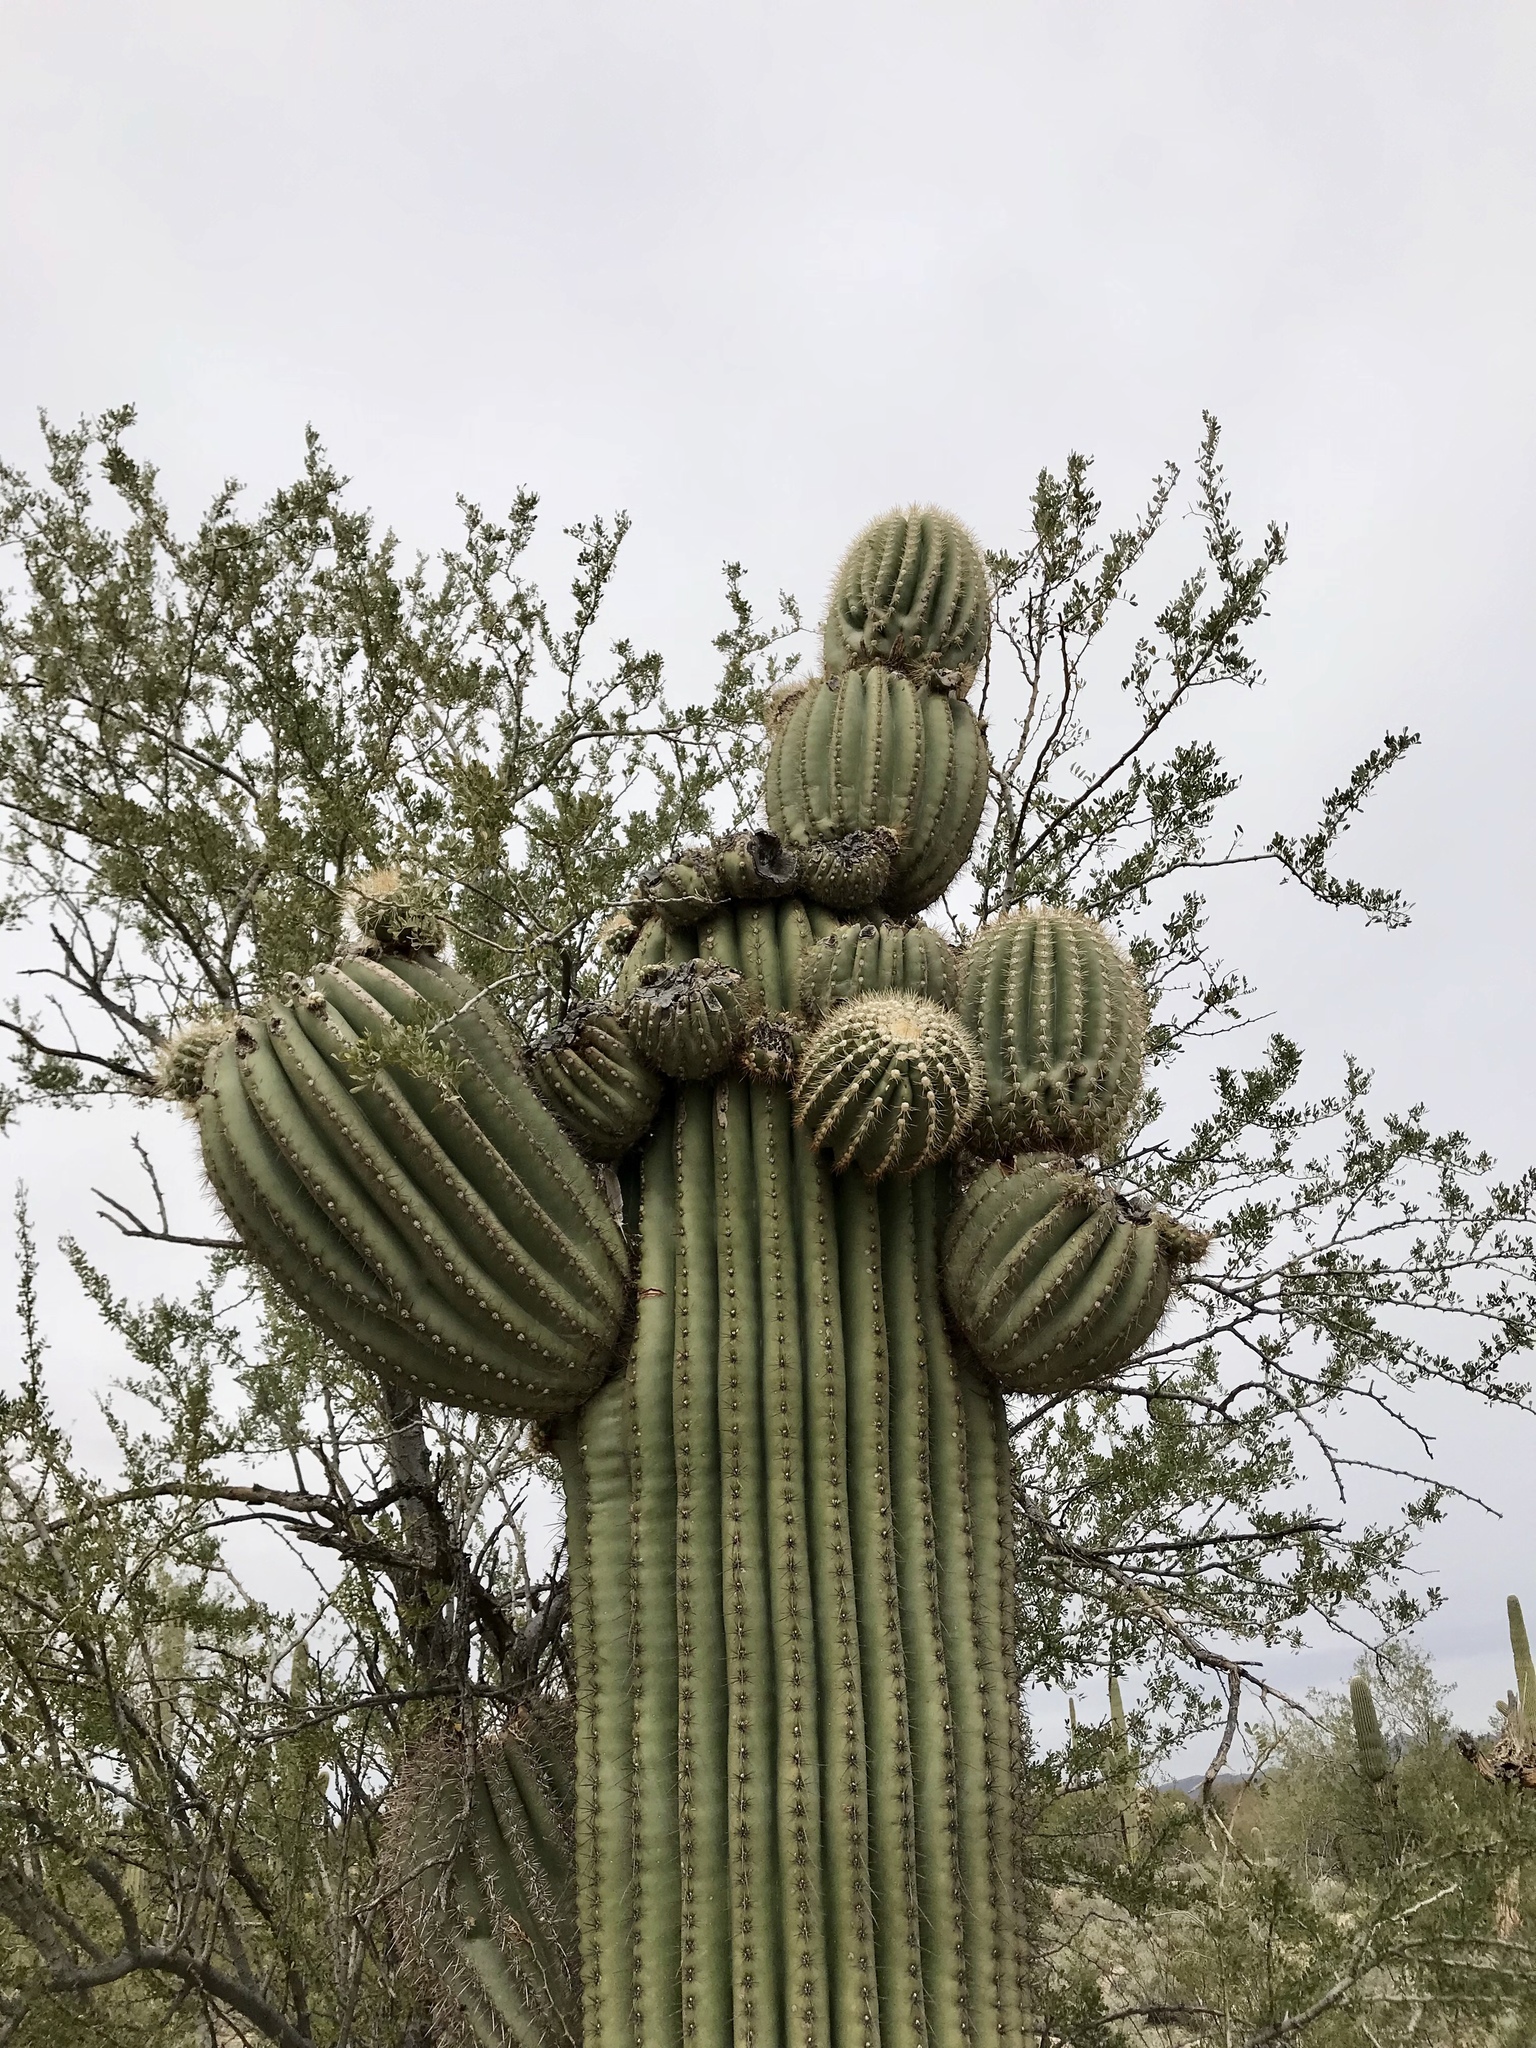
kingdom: Plantae
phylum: Tracheophyta
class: Magnoliopsida
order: Caryophyllales
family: Cactaceae
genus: Carnegiea
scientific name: Carnegiea gigantea
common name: Saguaro
